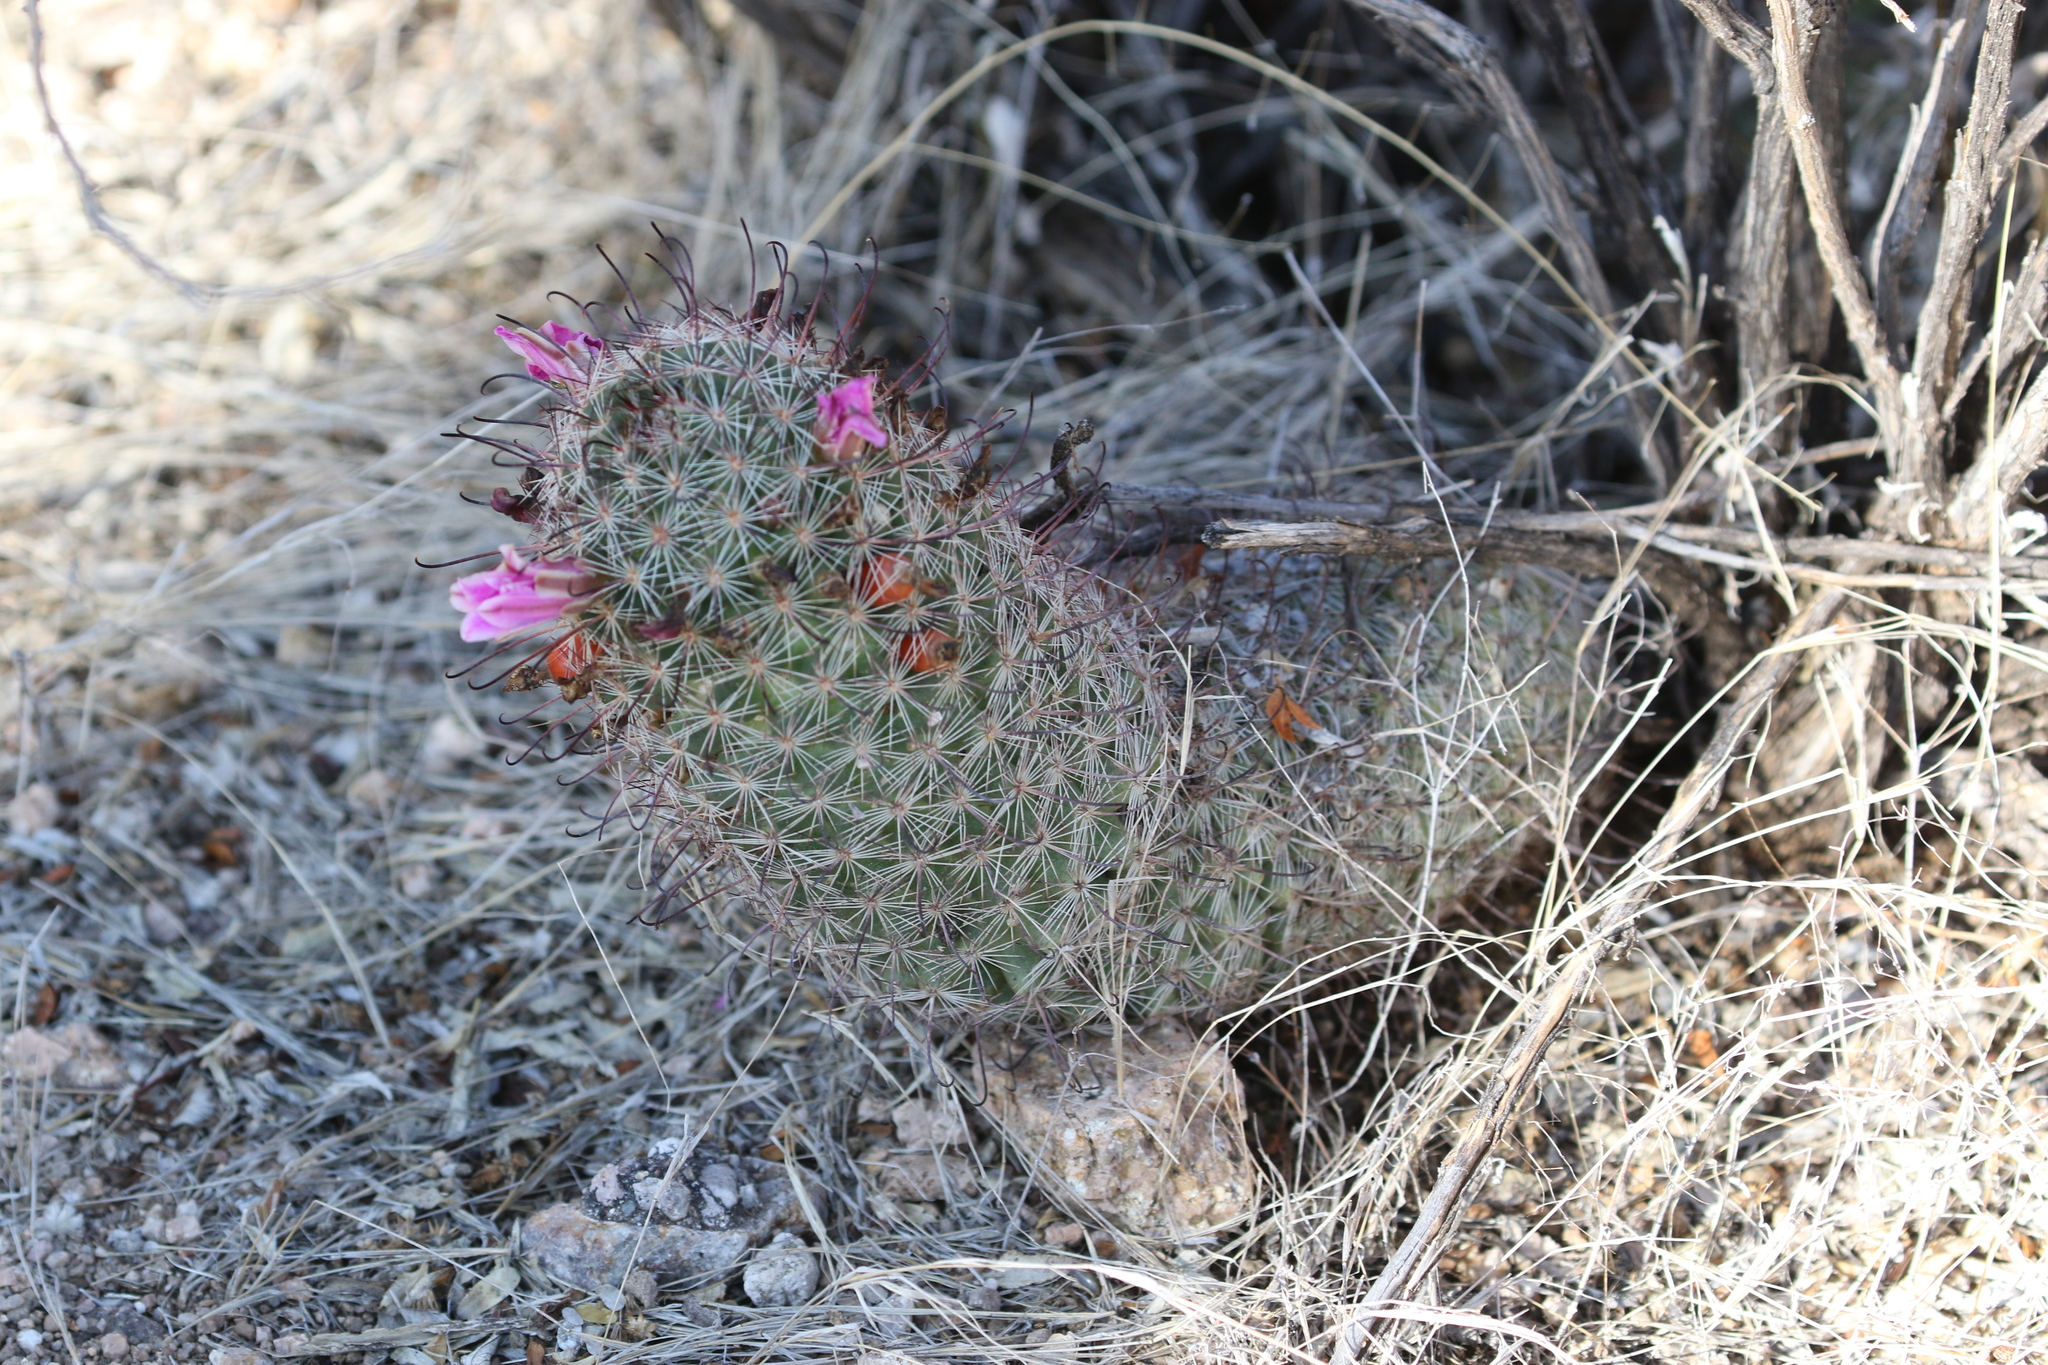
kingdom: Plantae
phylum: Tracheophyta
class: Magnoliopsida
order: Caryophyllales
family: Cactaceae
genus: Cochemiea
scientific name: Cochemiea grahamii
